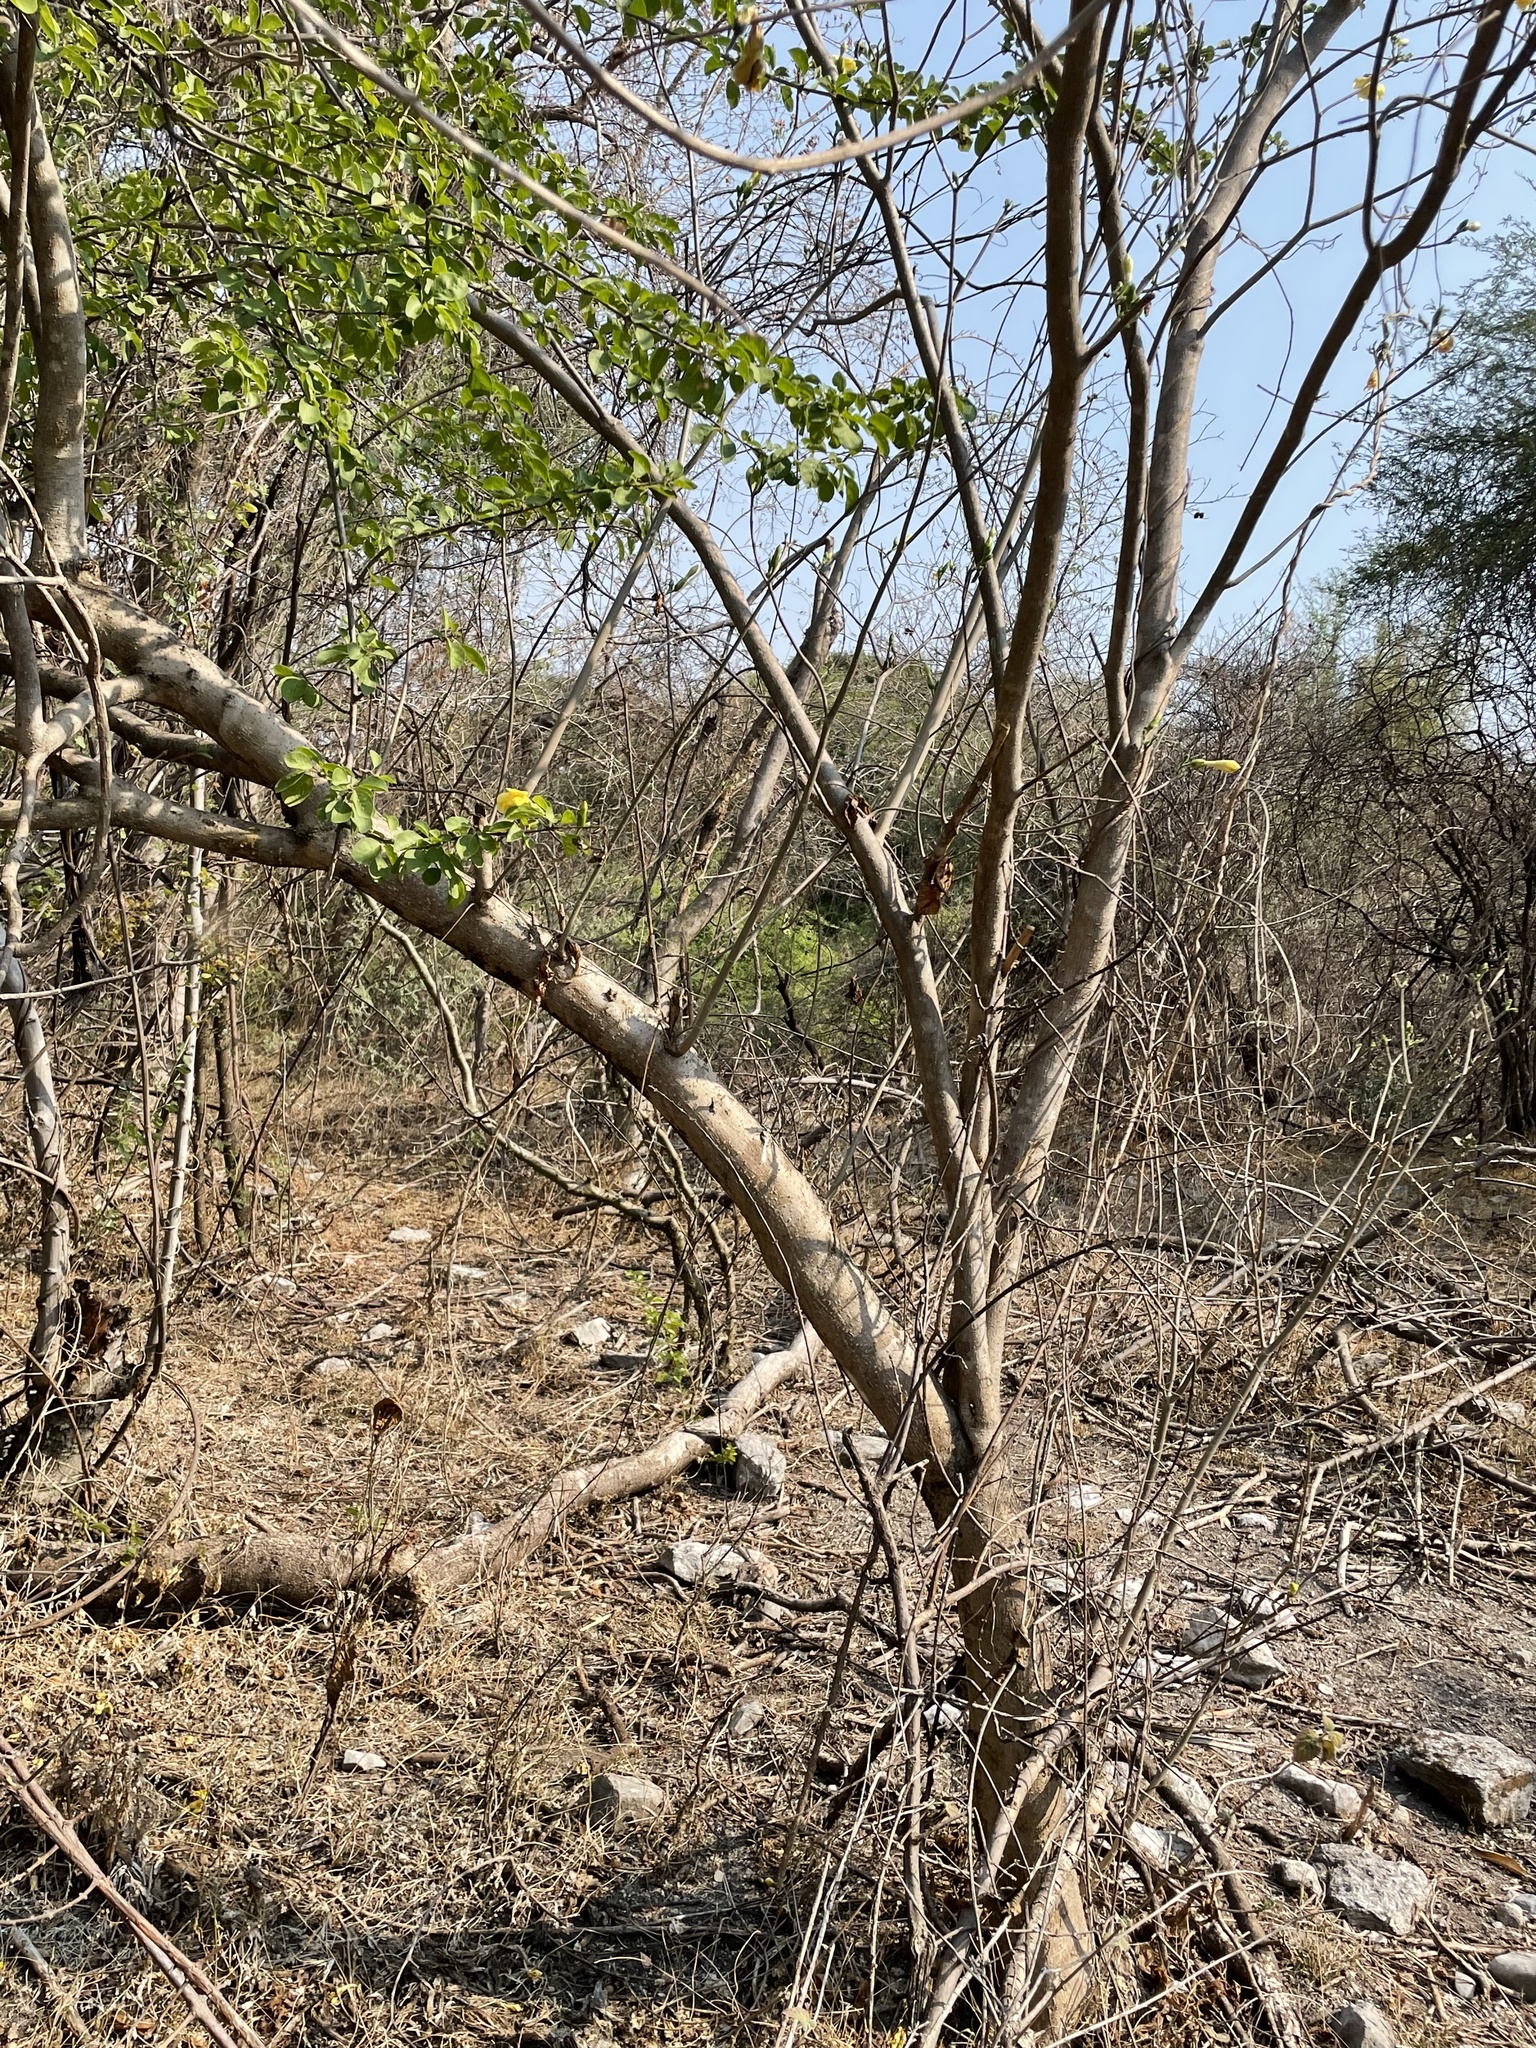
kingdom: Plantae
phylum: Tracheophyta
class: Magnoliopsida
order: Gentianales
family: Apocynaceae
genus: Tabernaemontana
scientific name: Tabernaemontana glabra
